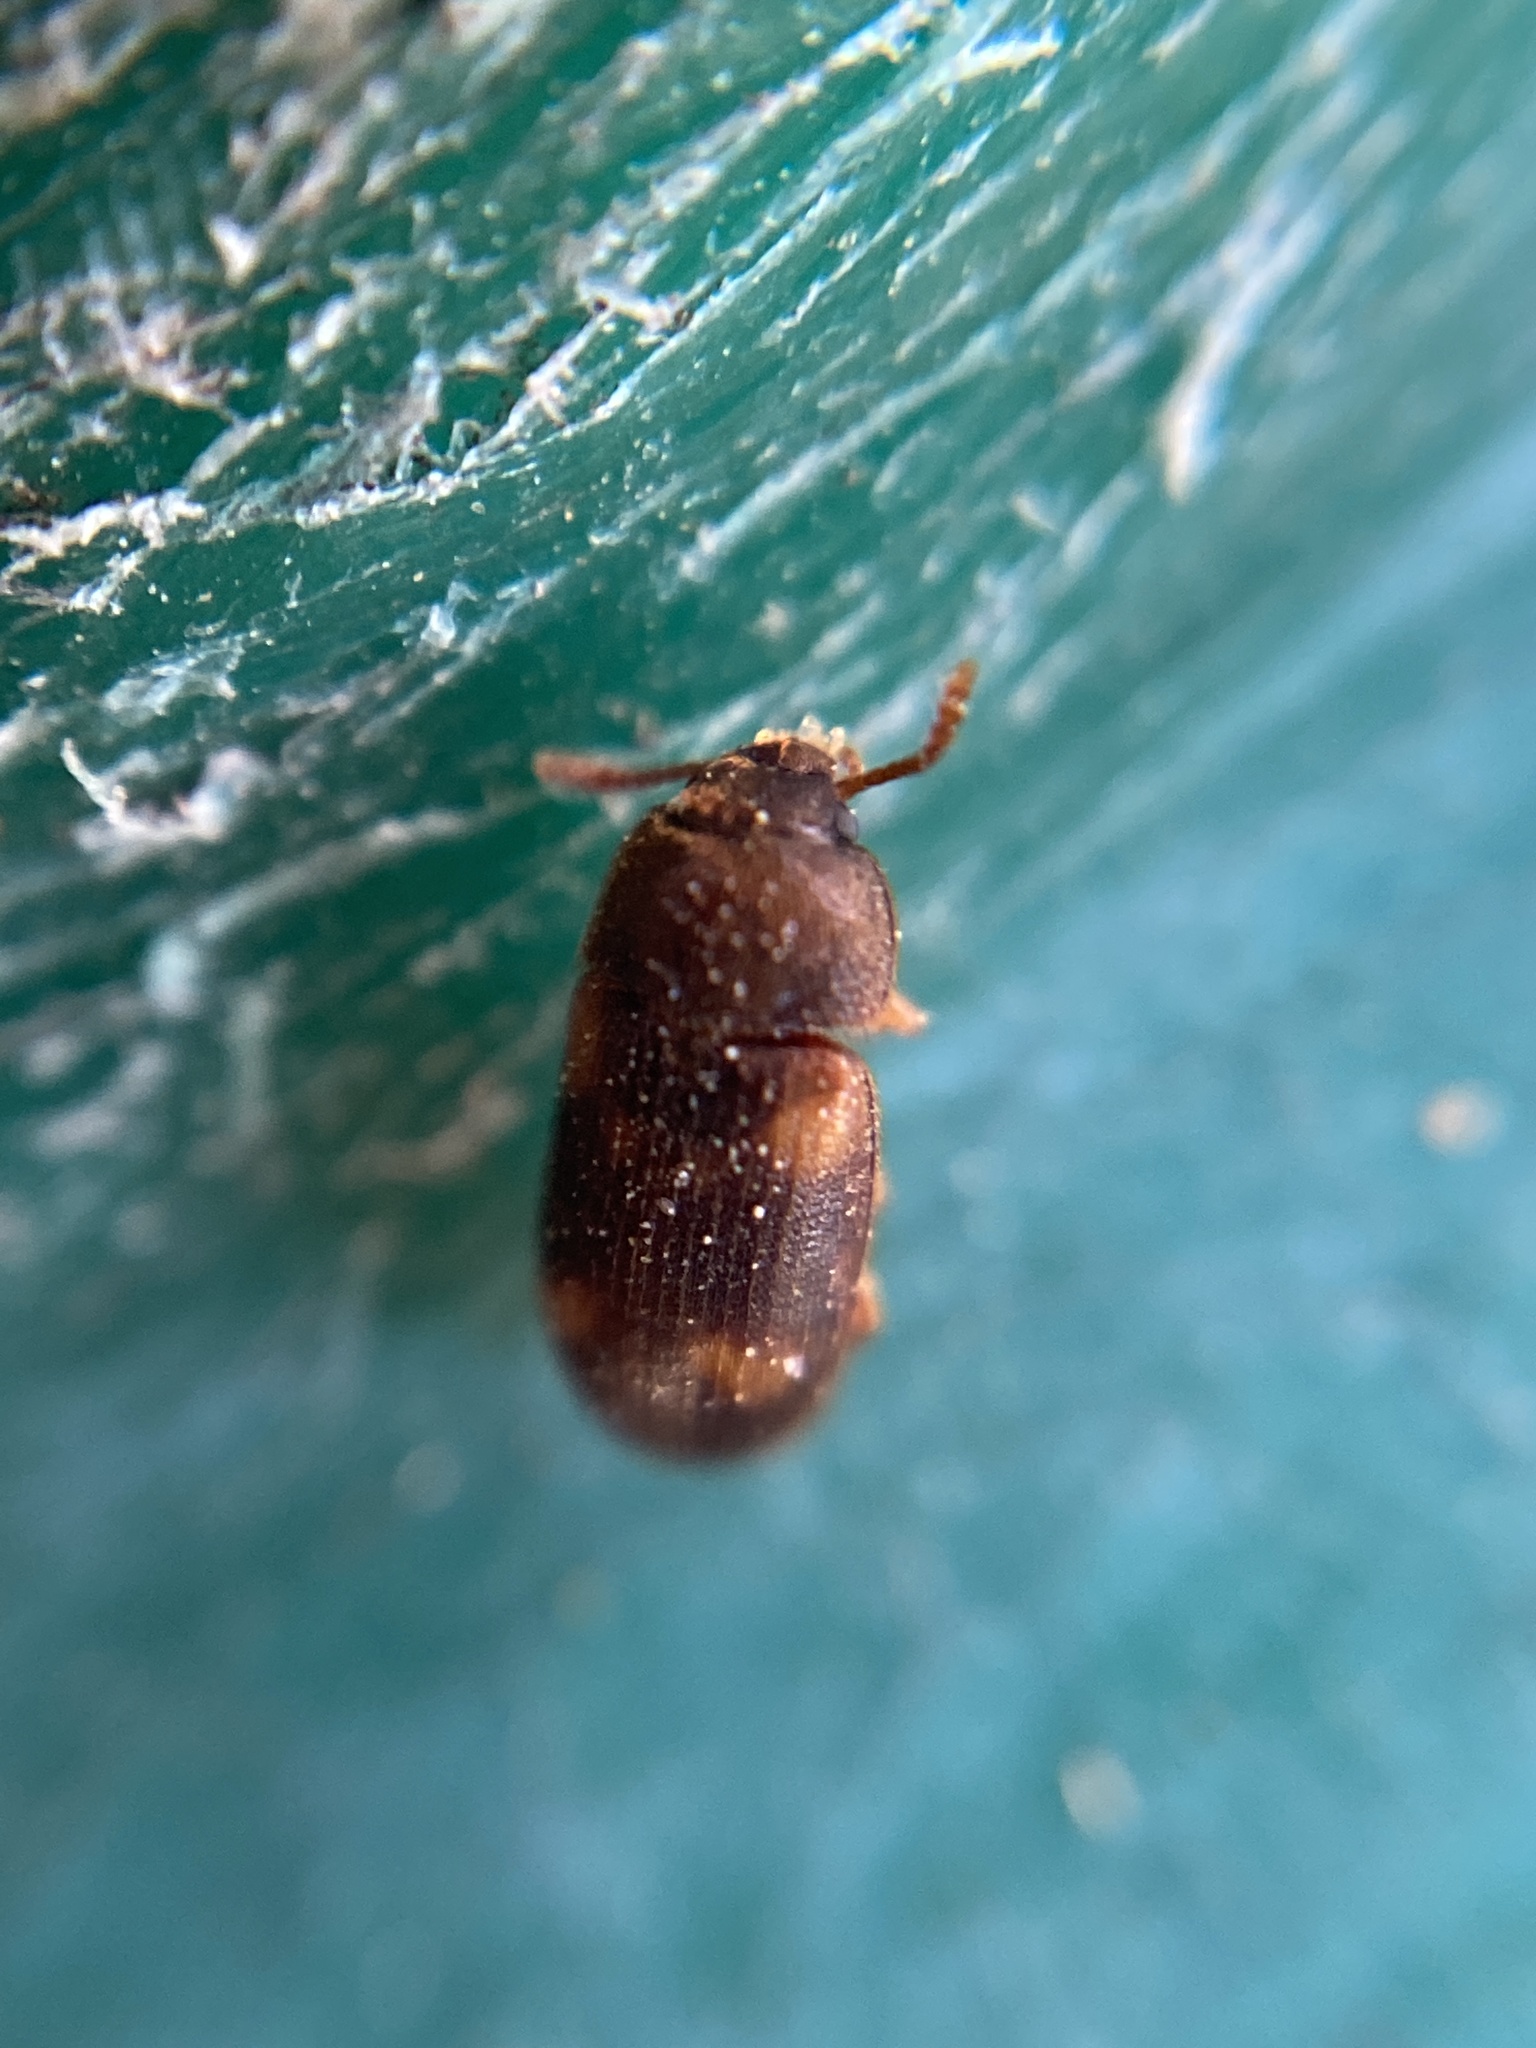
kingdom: Animalia
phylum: Arthropoda
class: Insecta
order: Coleoptera
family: Mycetophagidae
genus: Mycetophagus
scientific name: Mycetophagus quadriguttatus
